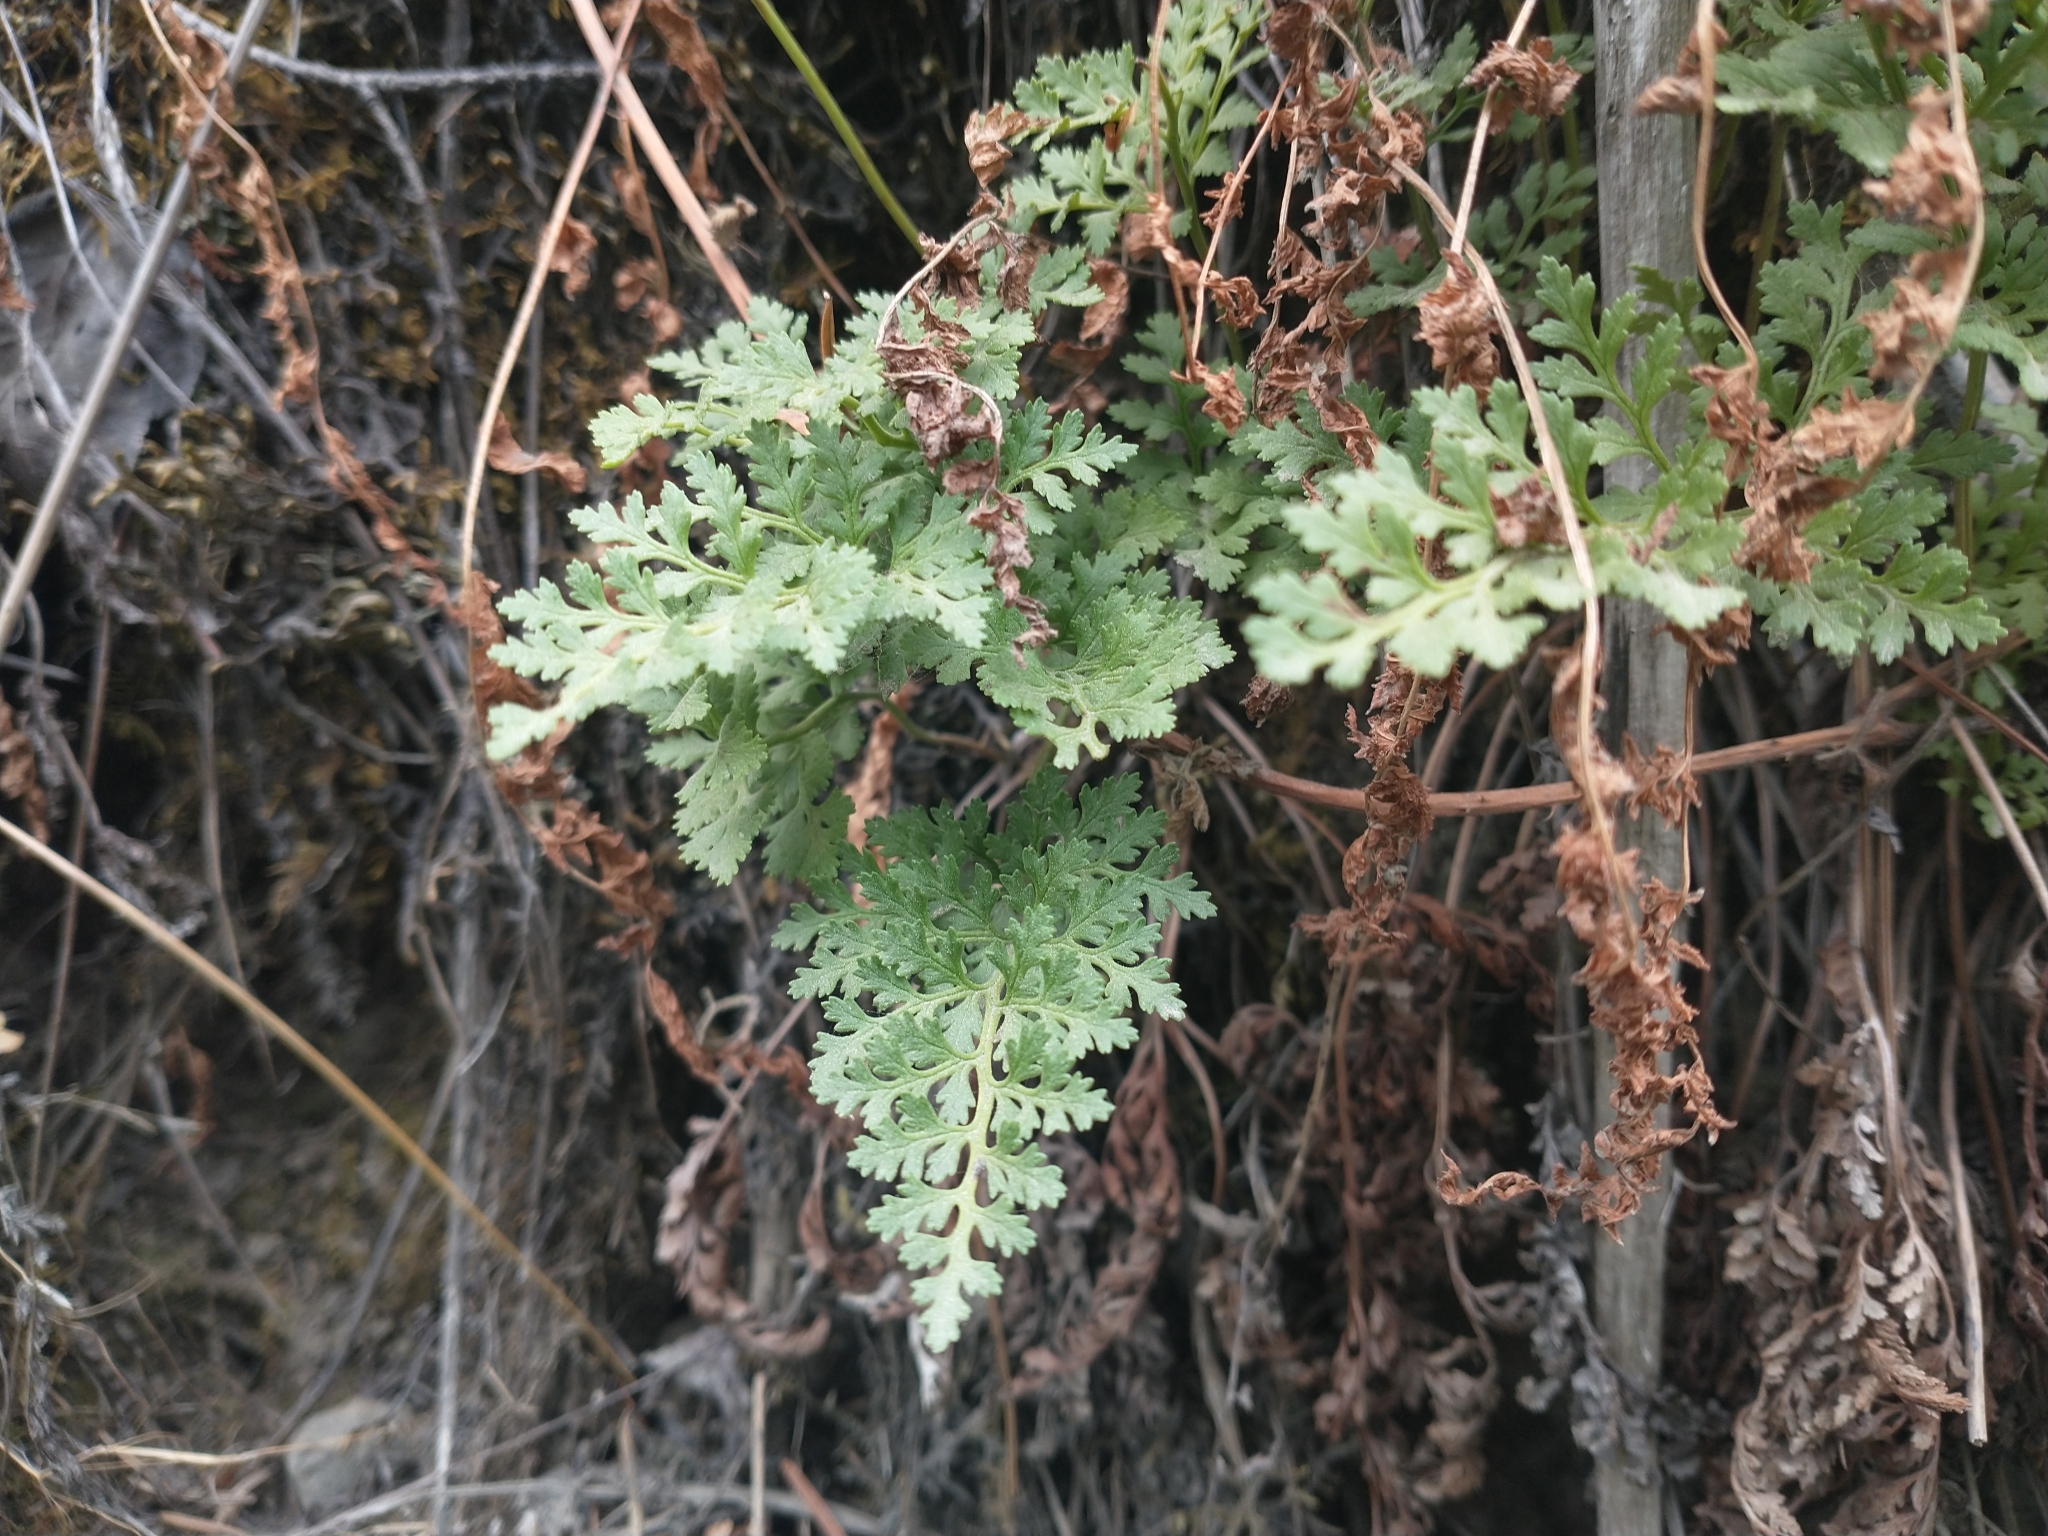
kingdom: Plantae
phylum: Tracheophyta
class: Polypodiopsida
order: Polypodiales
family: Pteridaceae
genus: Cryptogramma
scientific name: Cryptogramma acrostichoides
